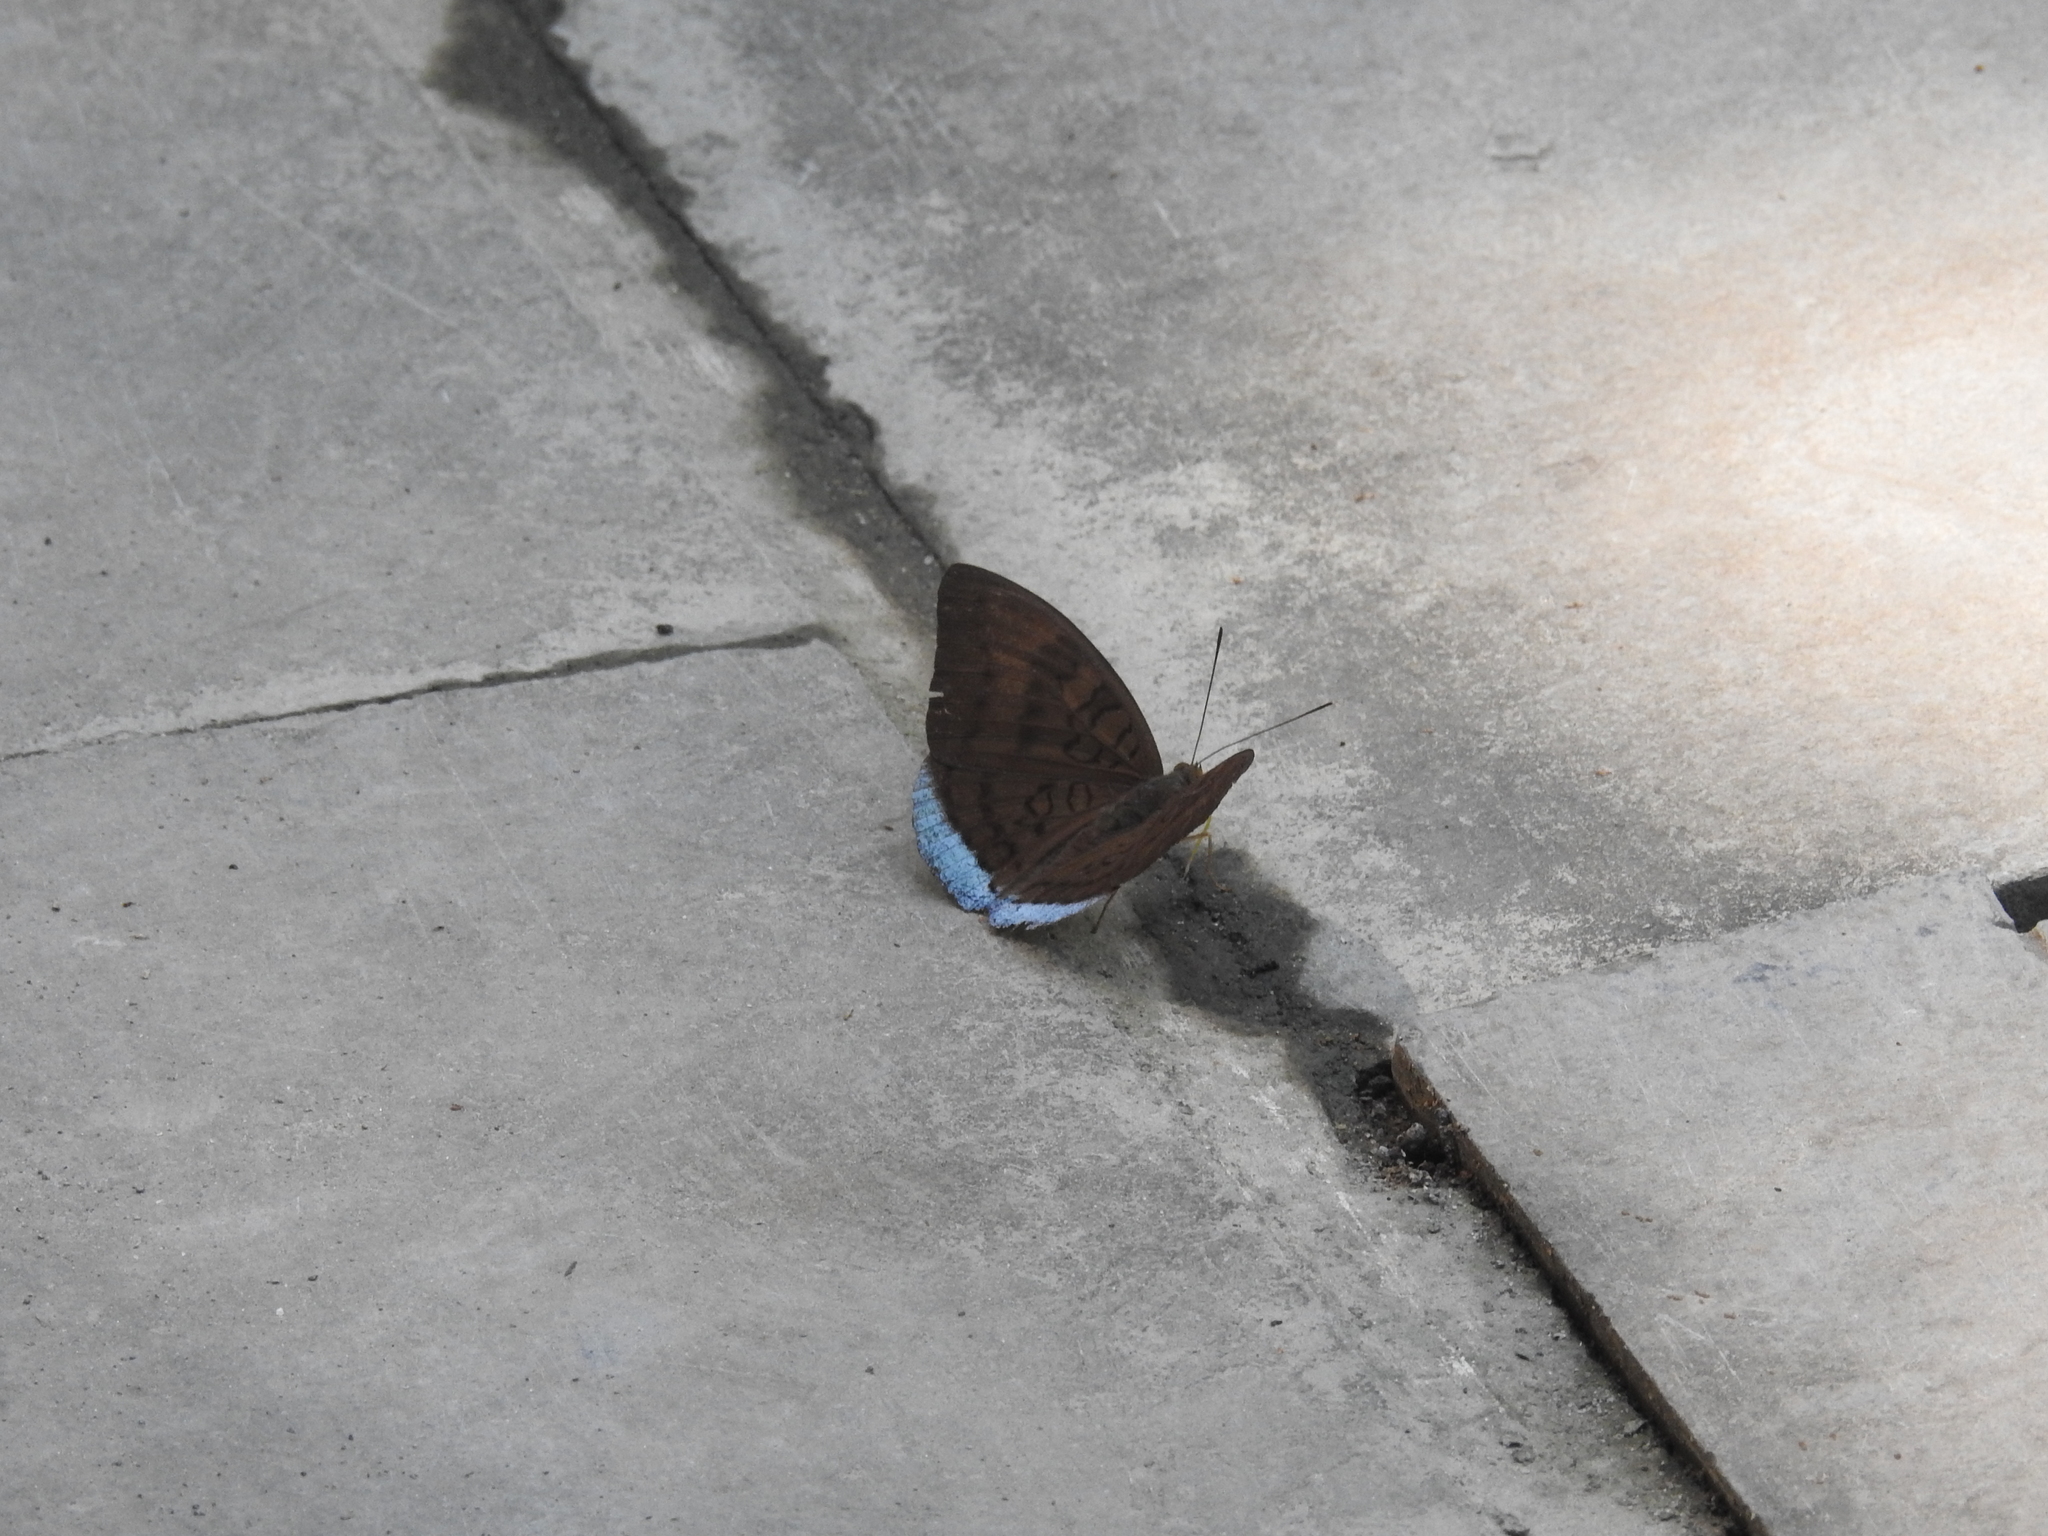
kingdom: Animalia
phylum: Arthropoda
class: Insecta
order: Lepidoptera
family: Nymphalidae
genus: Tanaecia
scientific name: Tanaecia julii
